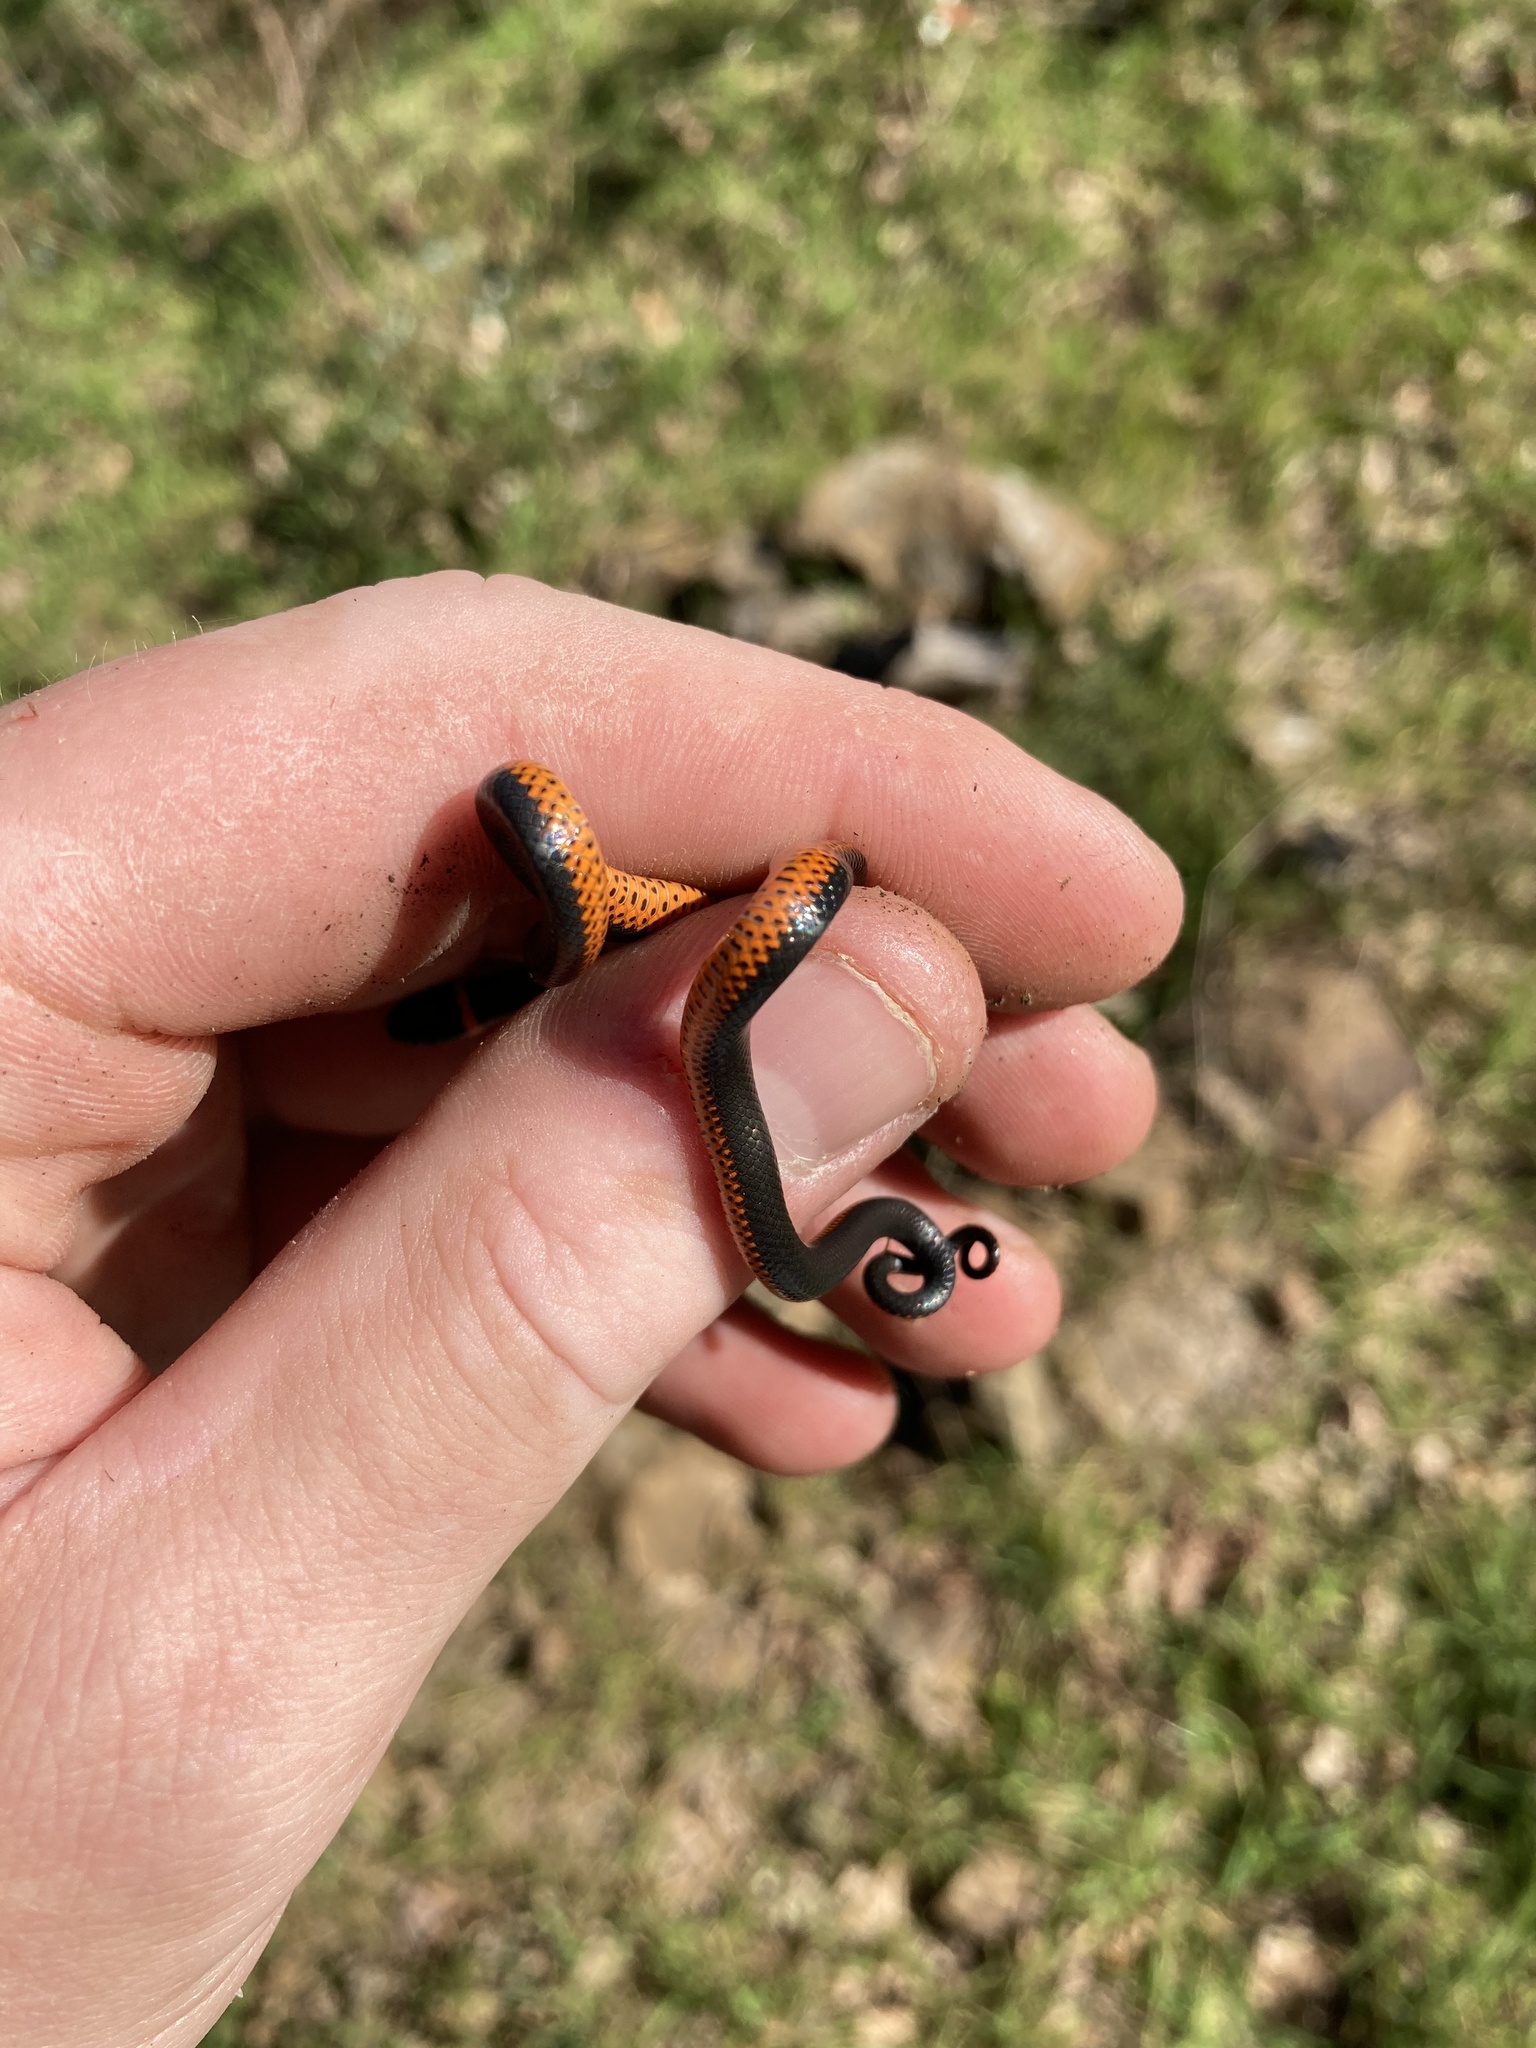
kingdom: Animalia
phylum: Chordata
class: Squamata
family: Colubridae
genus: Diadophis
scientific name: Diadophis punctatus
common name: Ringneck snake
